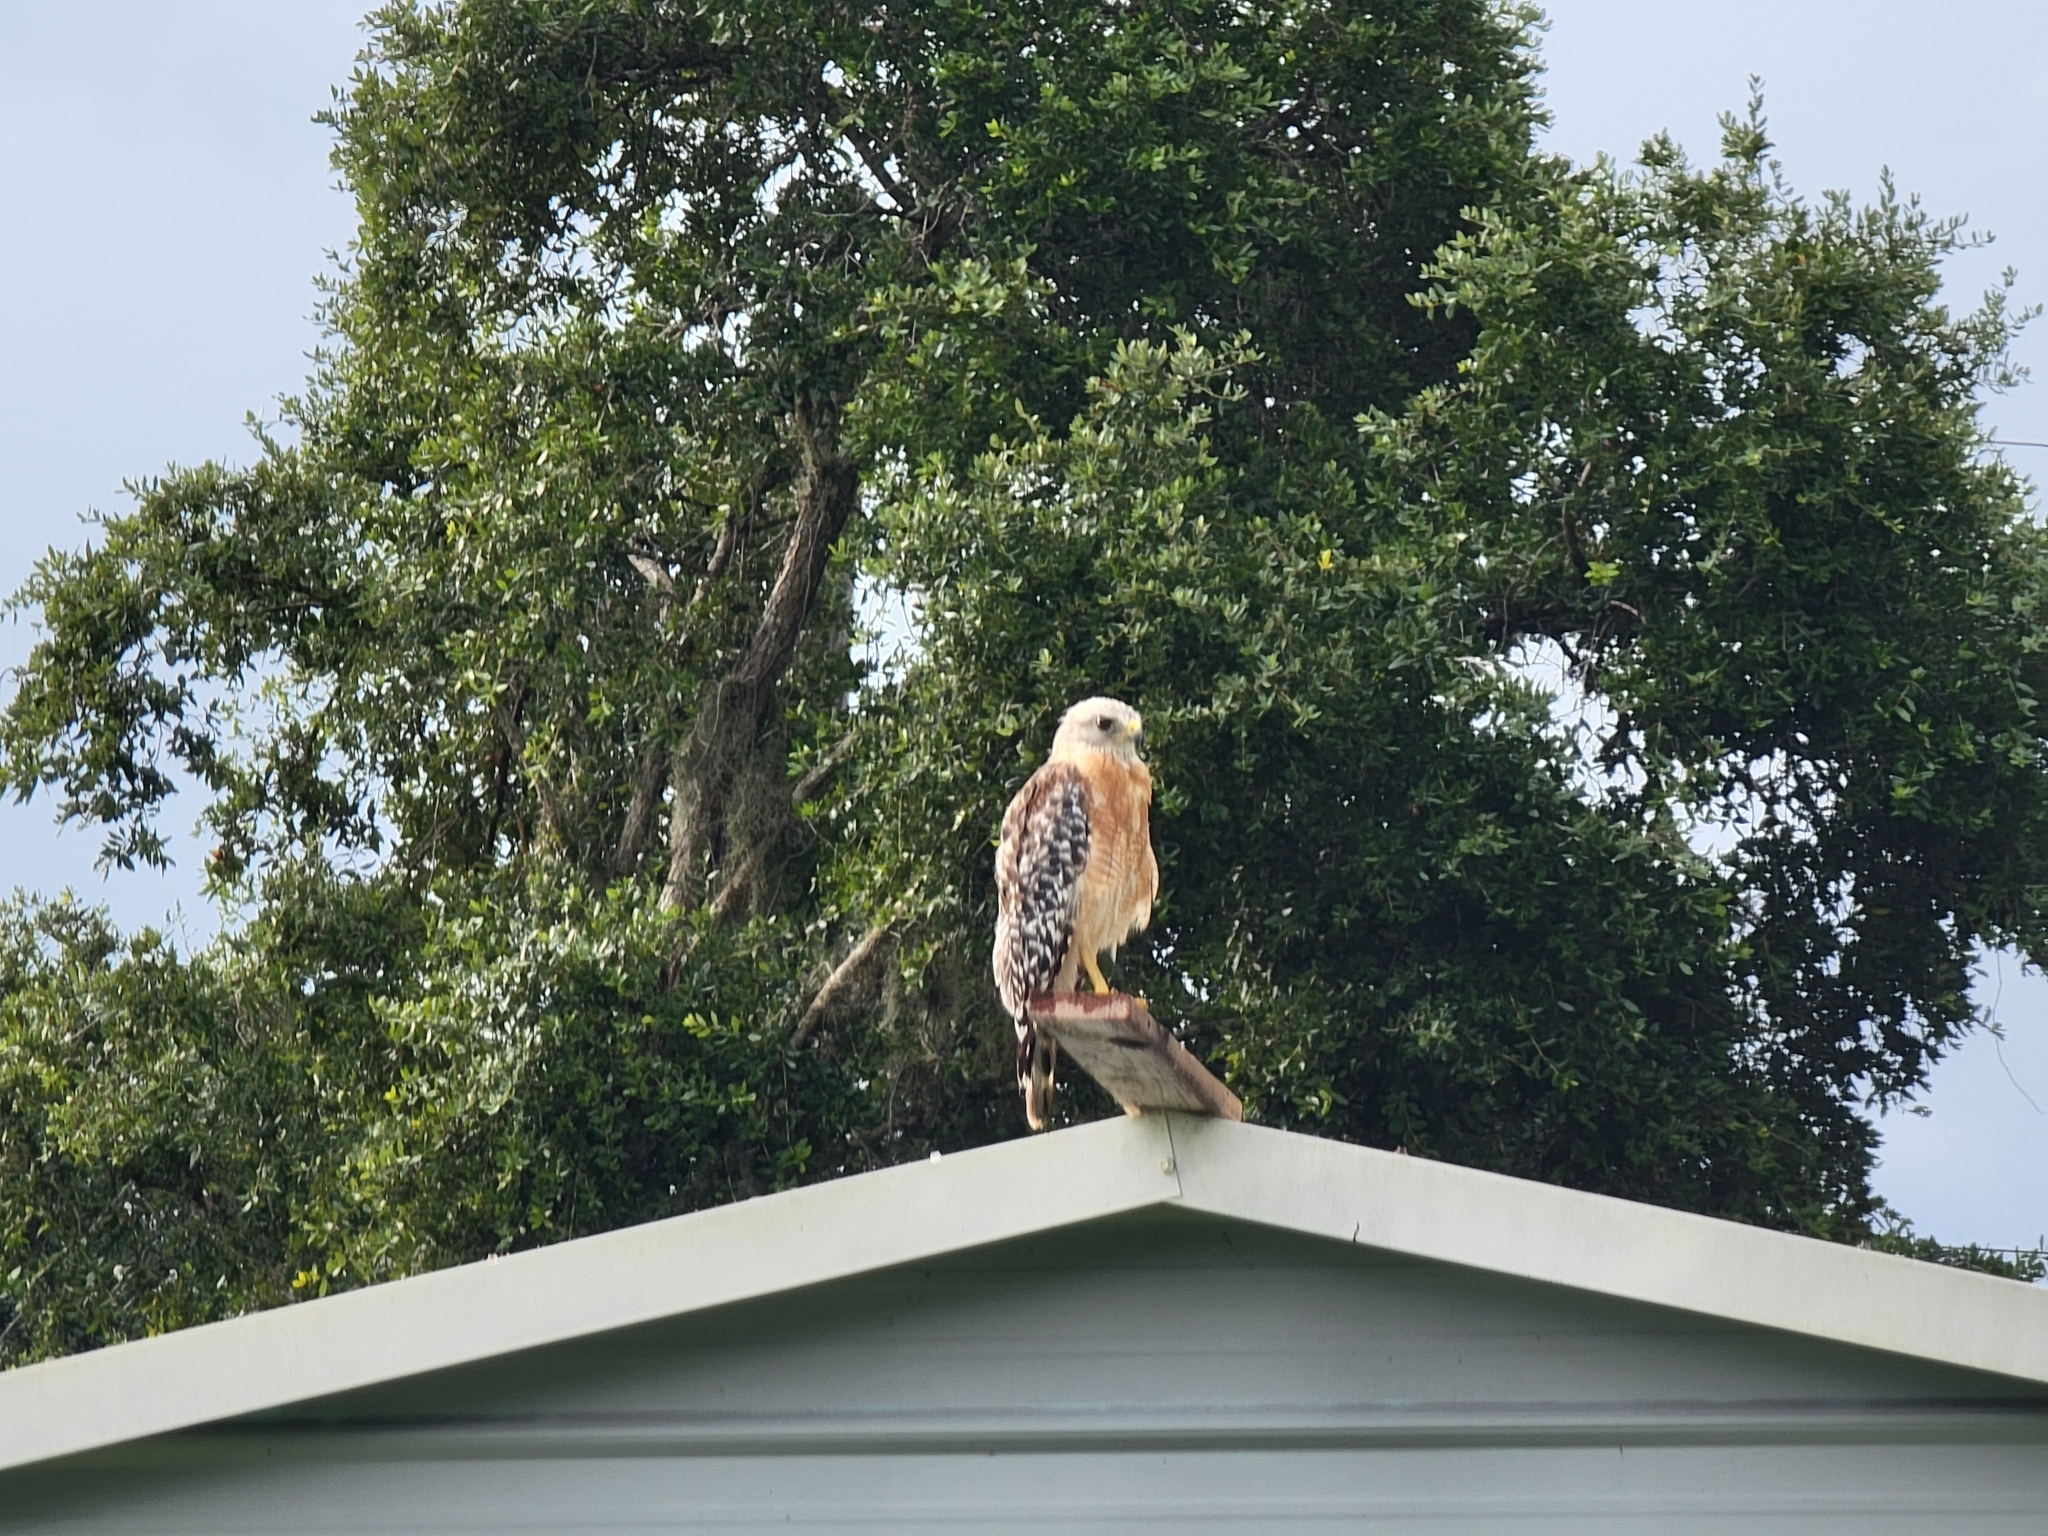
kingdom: Animalia
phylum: Chordata
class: Aves
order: Accipitriformes
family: Accipitridae
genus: Buteo
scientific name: Buteo lineatus
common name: Red-shouldered hawk
